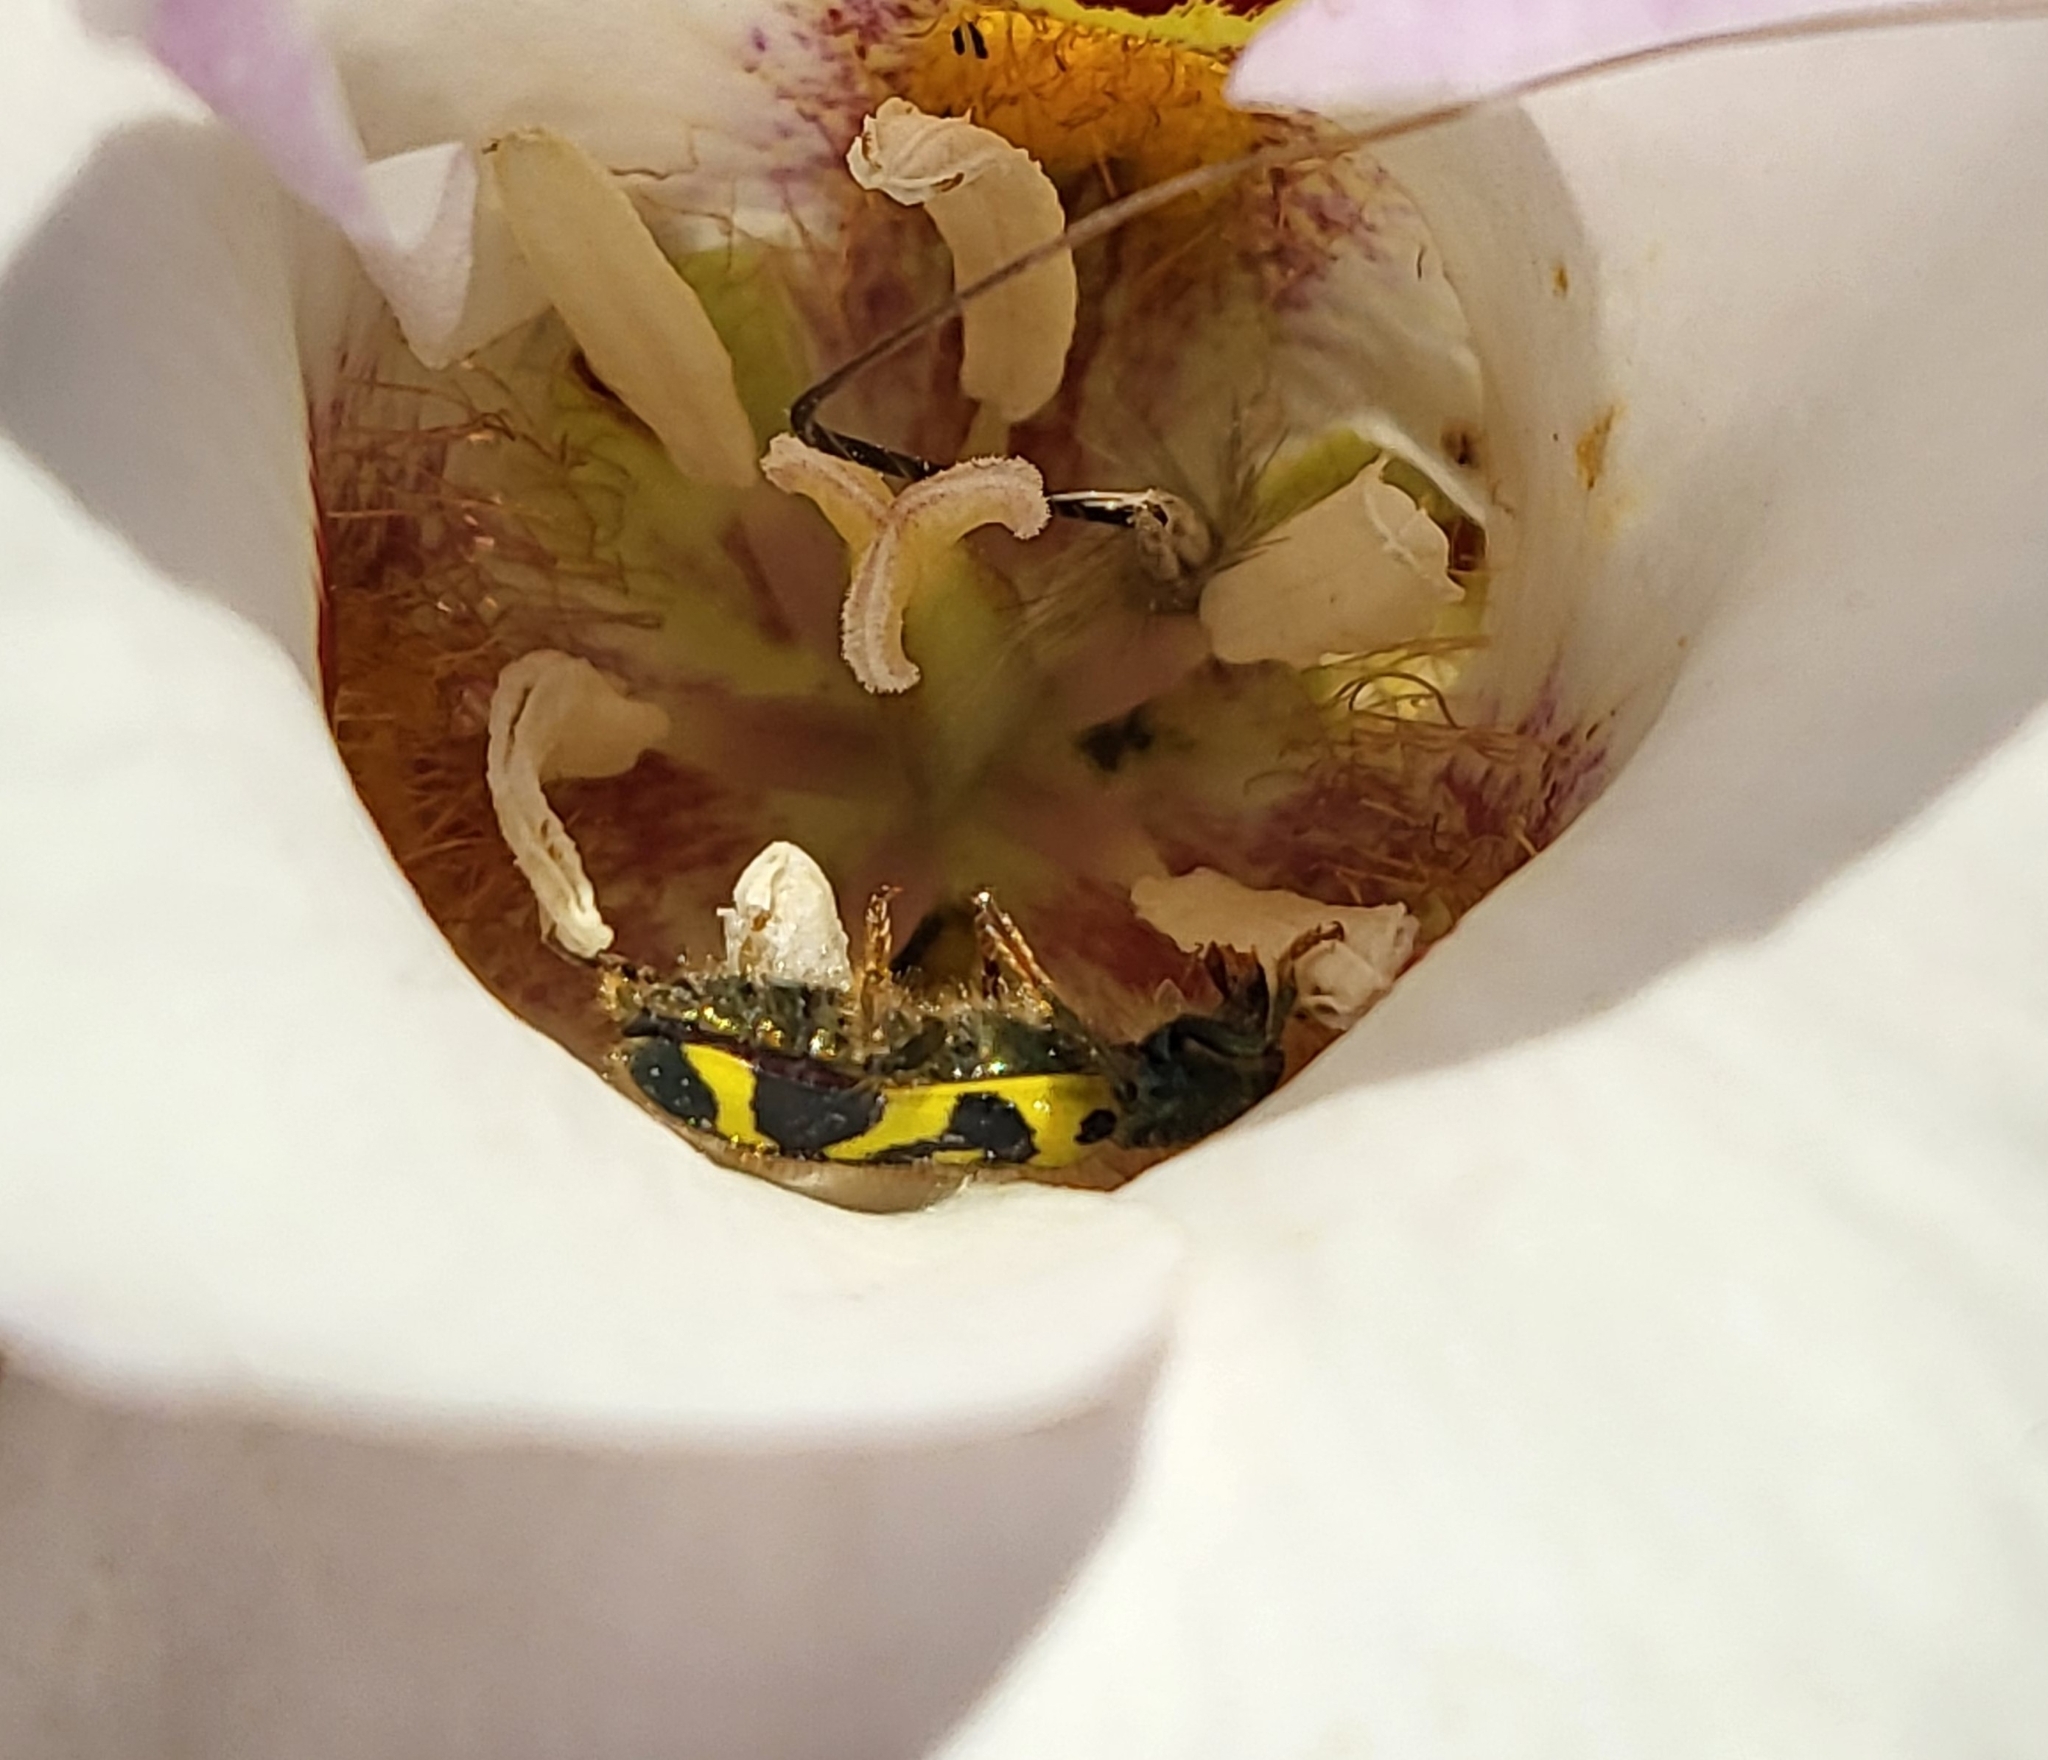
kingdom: Animalia
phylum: Arthropoda
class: Insecta
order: Coleoptera
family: Cleridae
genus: Trichodes
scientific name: Trichodes ornatus
